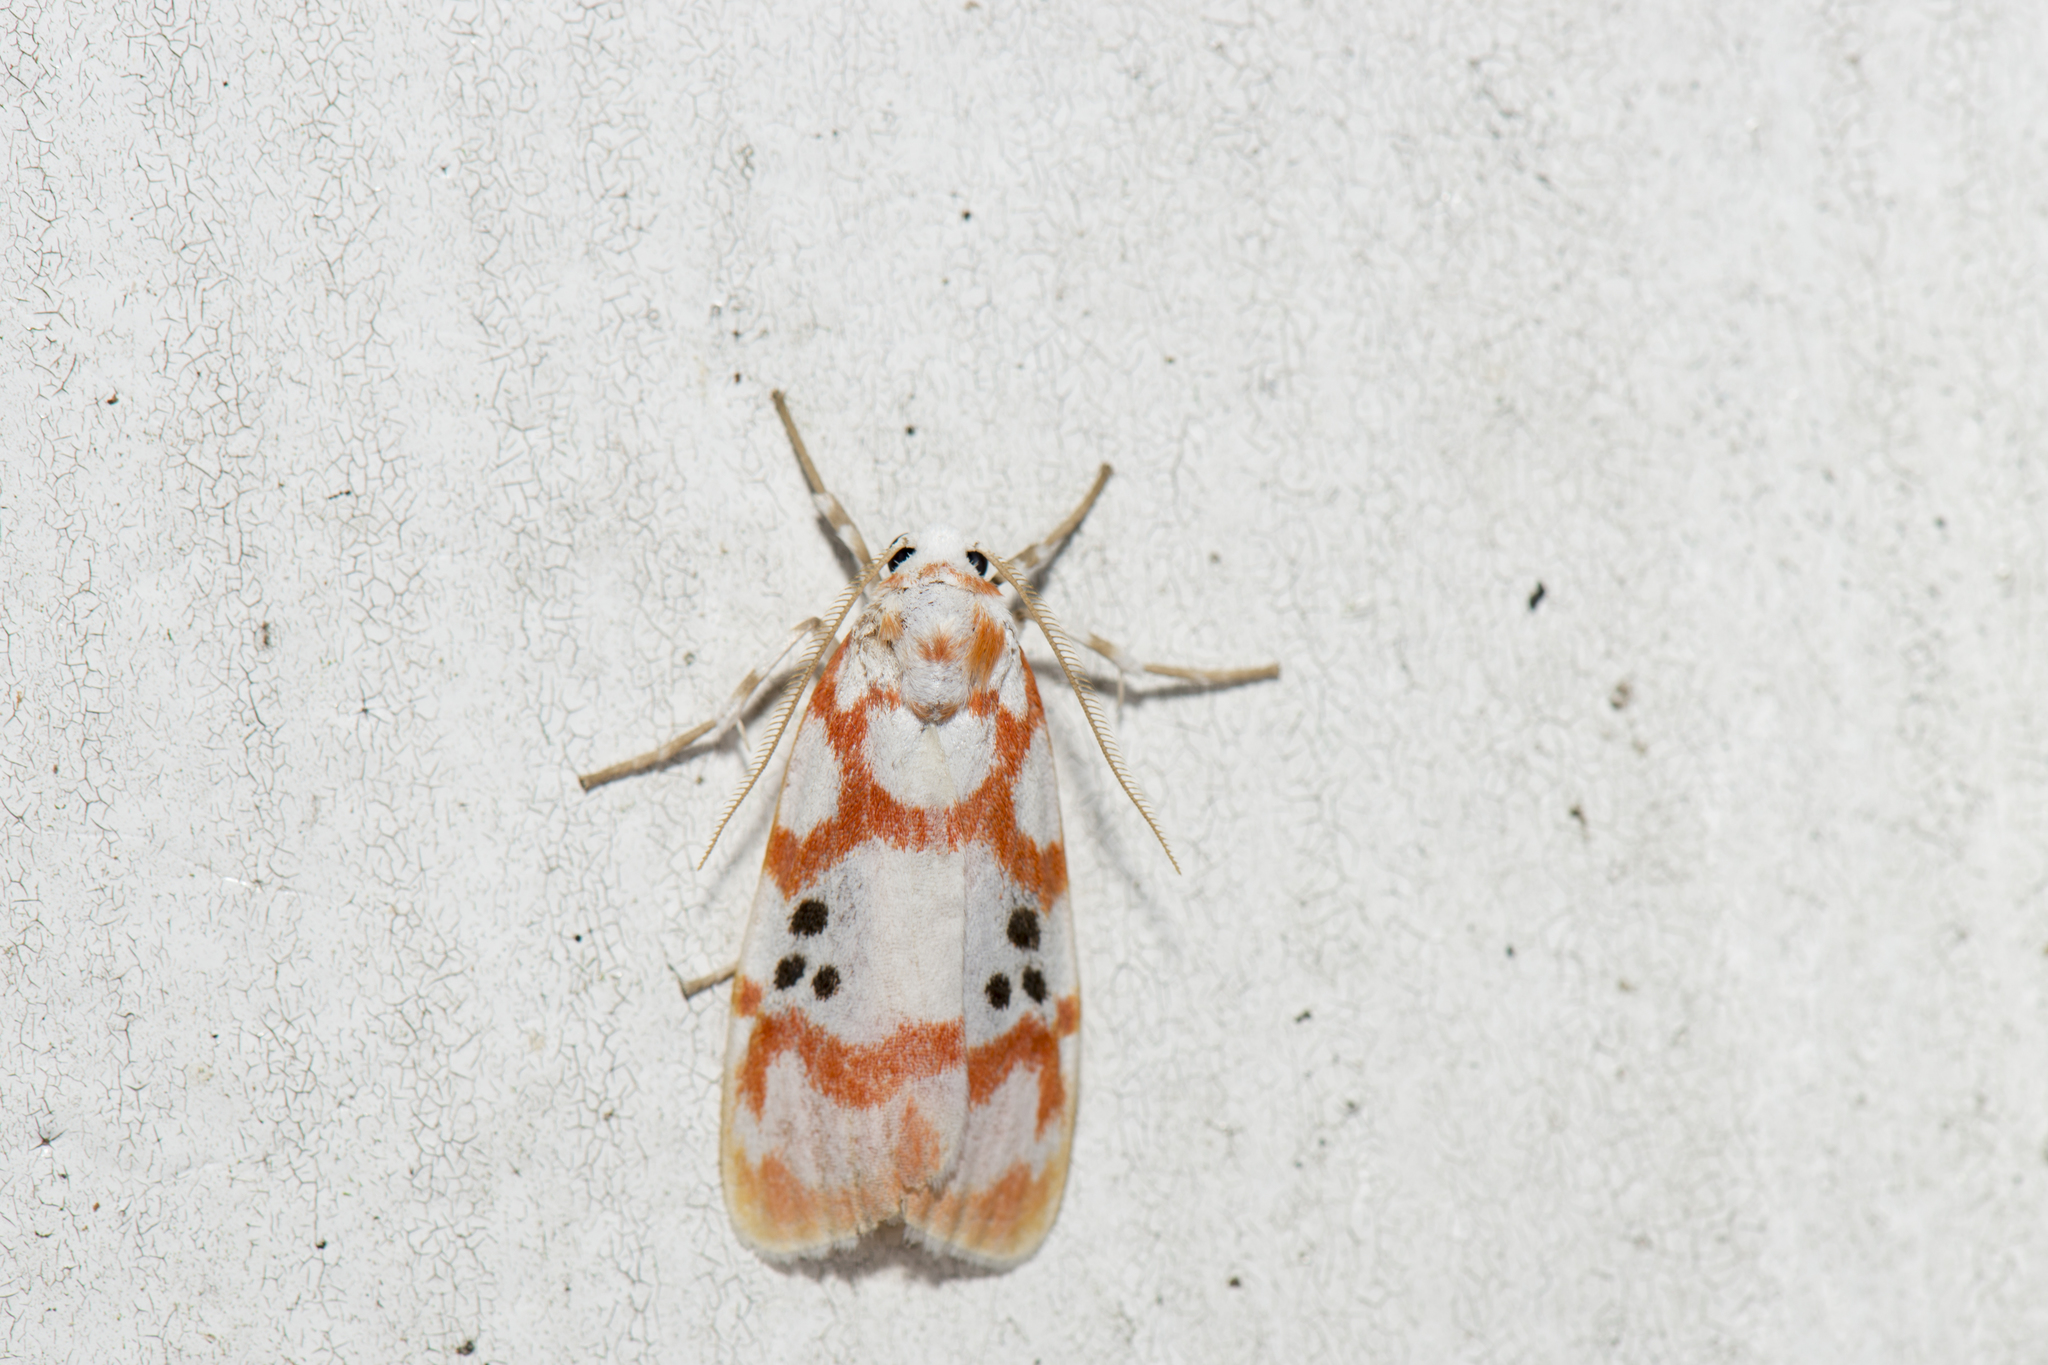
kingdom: Animalia
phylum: Arthropoda
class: Insecta
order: Lepidoptera
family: Erebidae
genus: Cyana
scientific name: Cyana formosana
